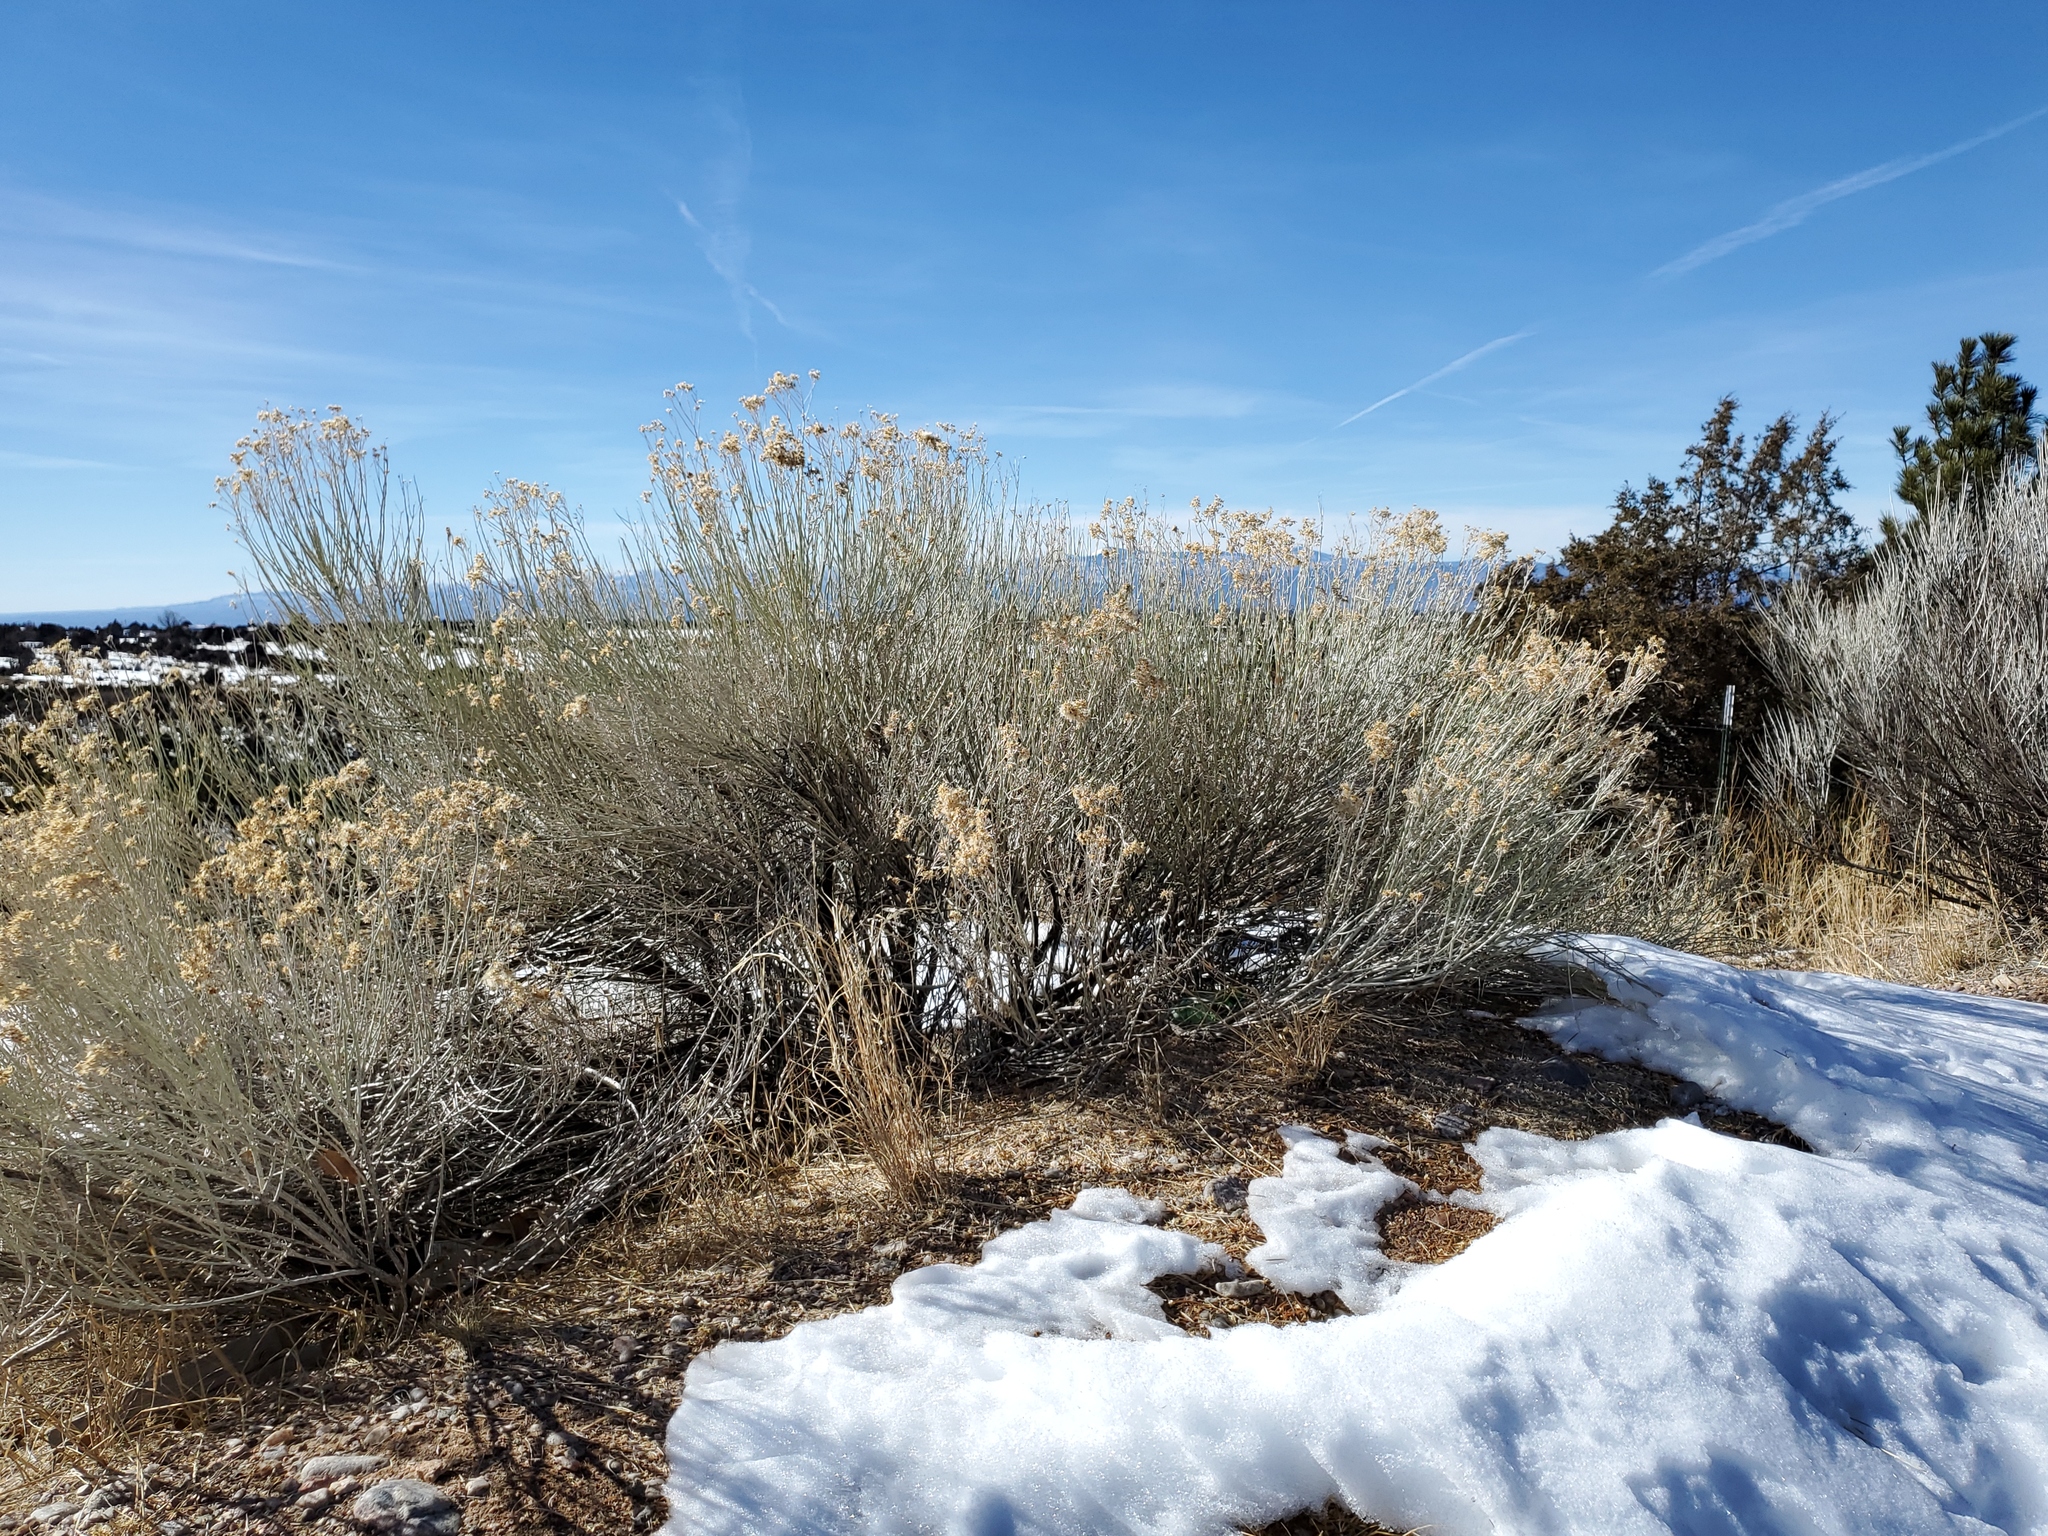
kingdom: Plantae
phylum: Tracheophyta
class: Magnoliopsida
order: Asterales
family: Asteraceae
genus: Ericameria
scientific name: Ericameria nauseosa
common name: Rubber rabbitbrush
